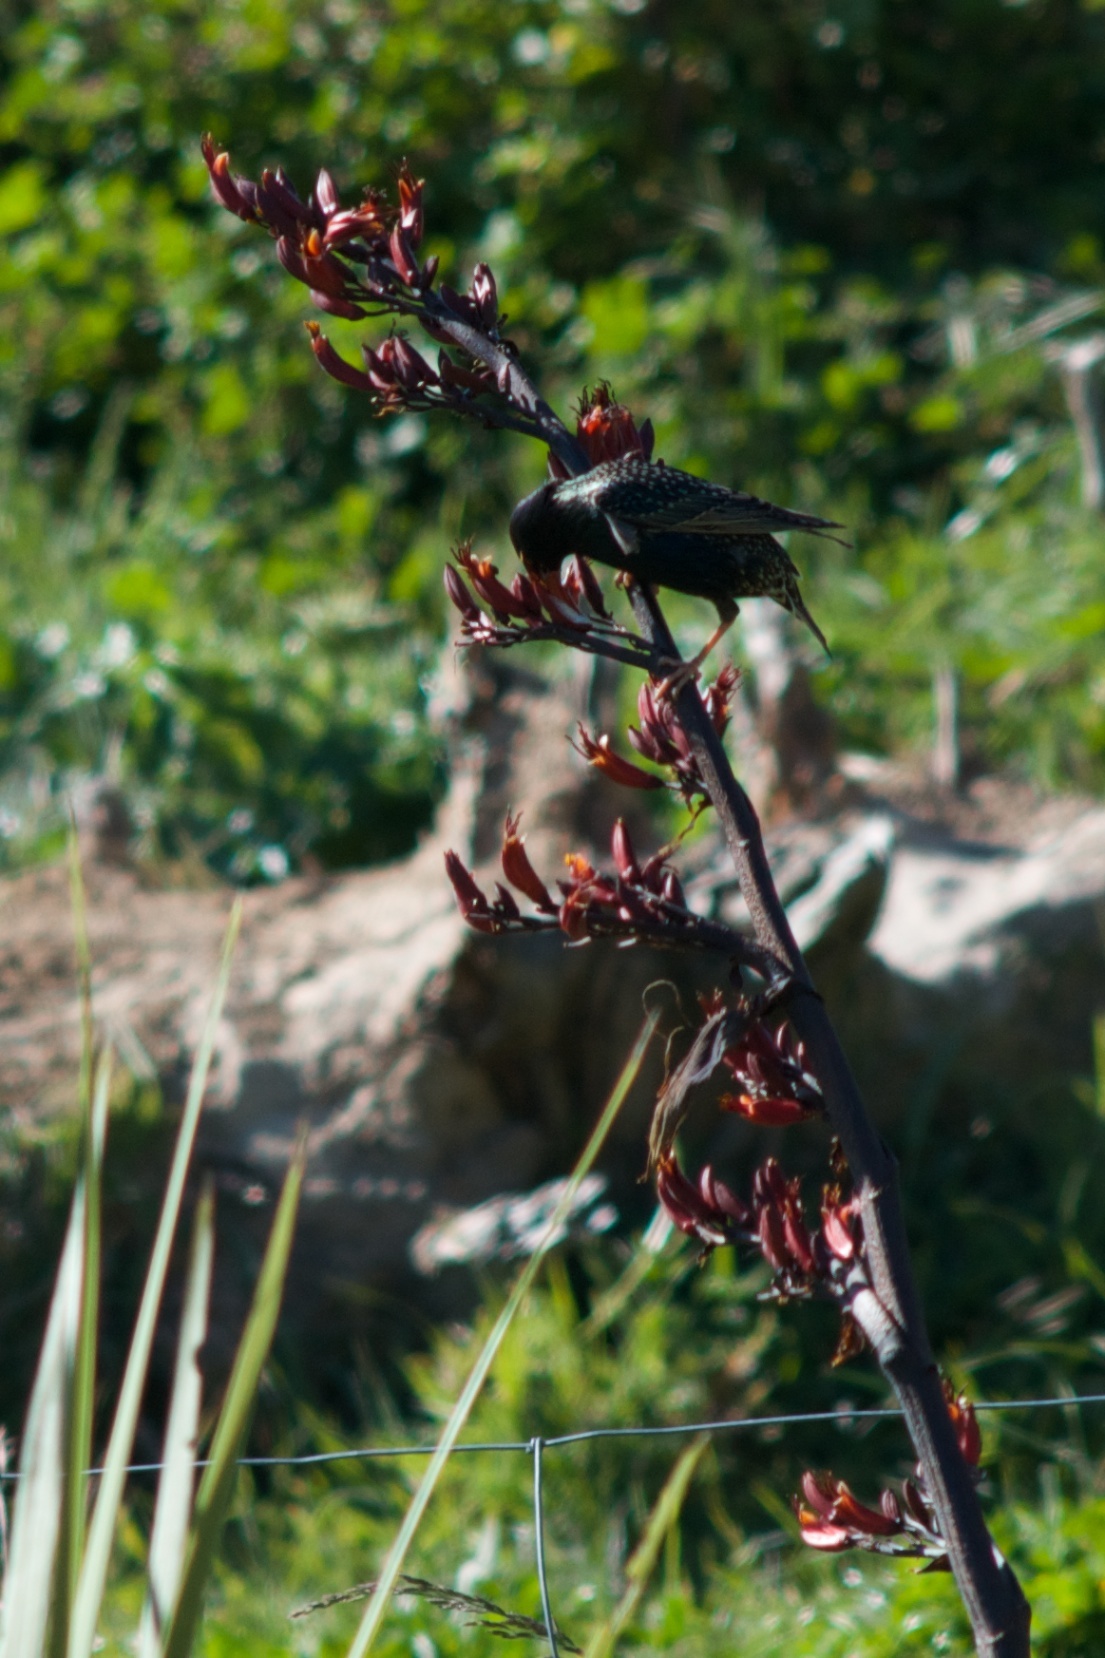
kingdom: Animalia
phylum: Chordata
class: Aves
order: Passeriformes
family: Sturnidae
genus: Sturnus
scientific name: Sturnus vulgaris
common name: Common starling
